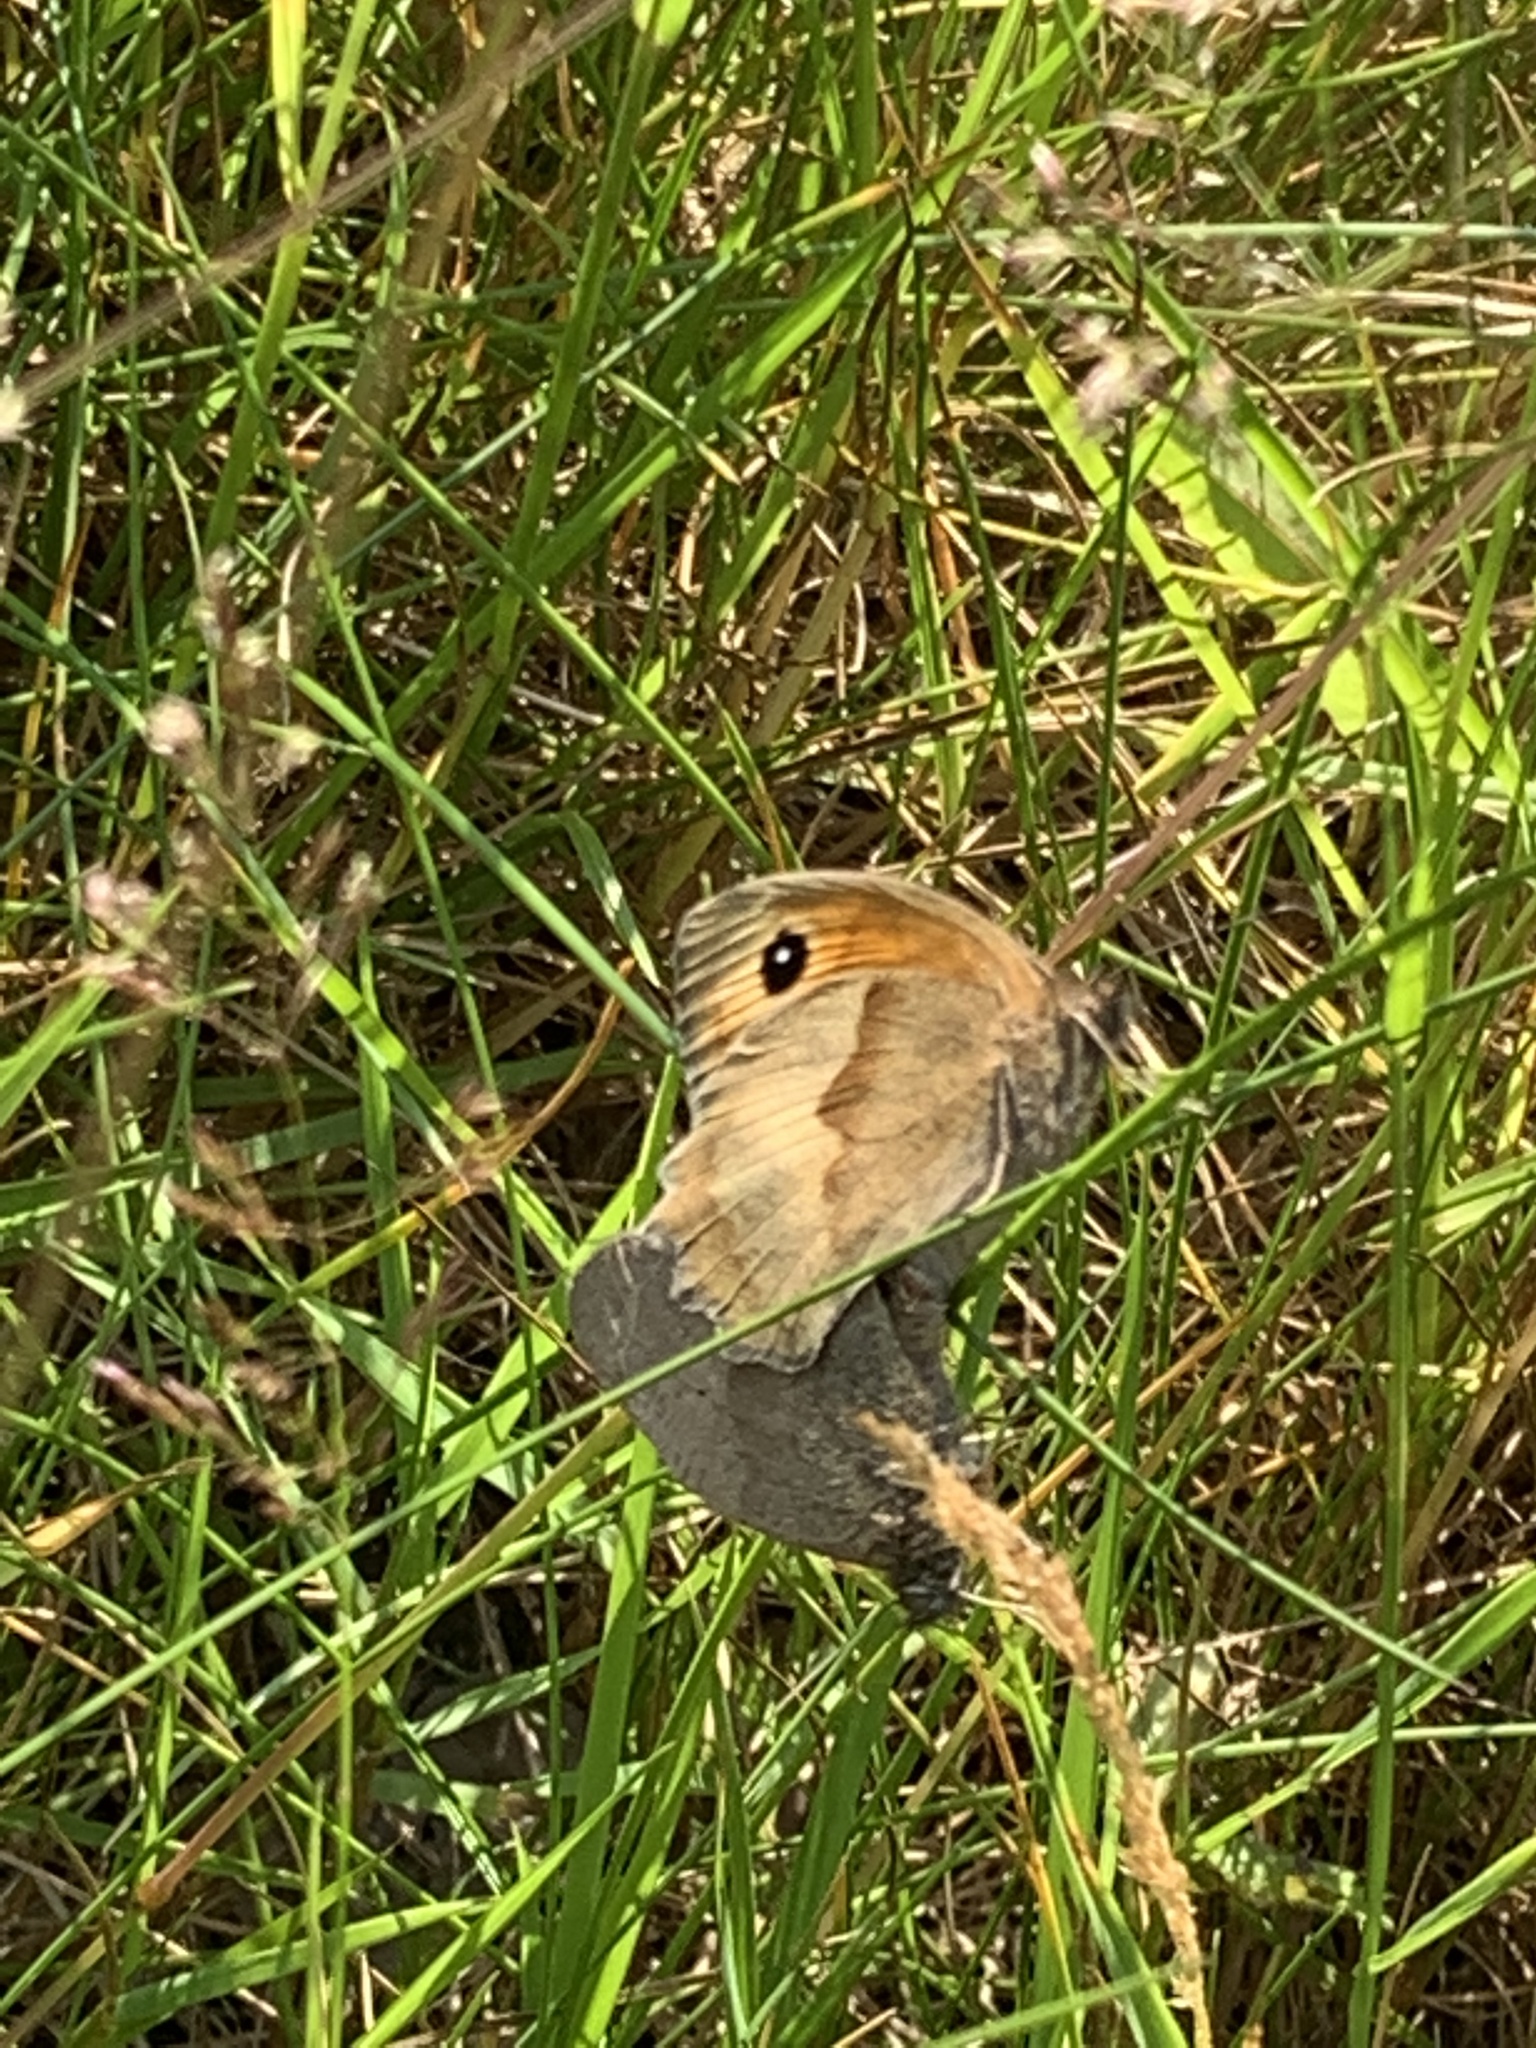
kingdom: Animalia
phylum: Arthropoda
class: Insecta
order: Lepidoptera
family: Nymphalidae
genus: Maniola
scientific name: Maniola jurtina
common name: Meadow brown
